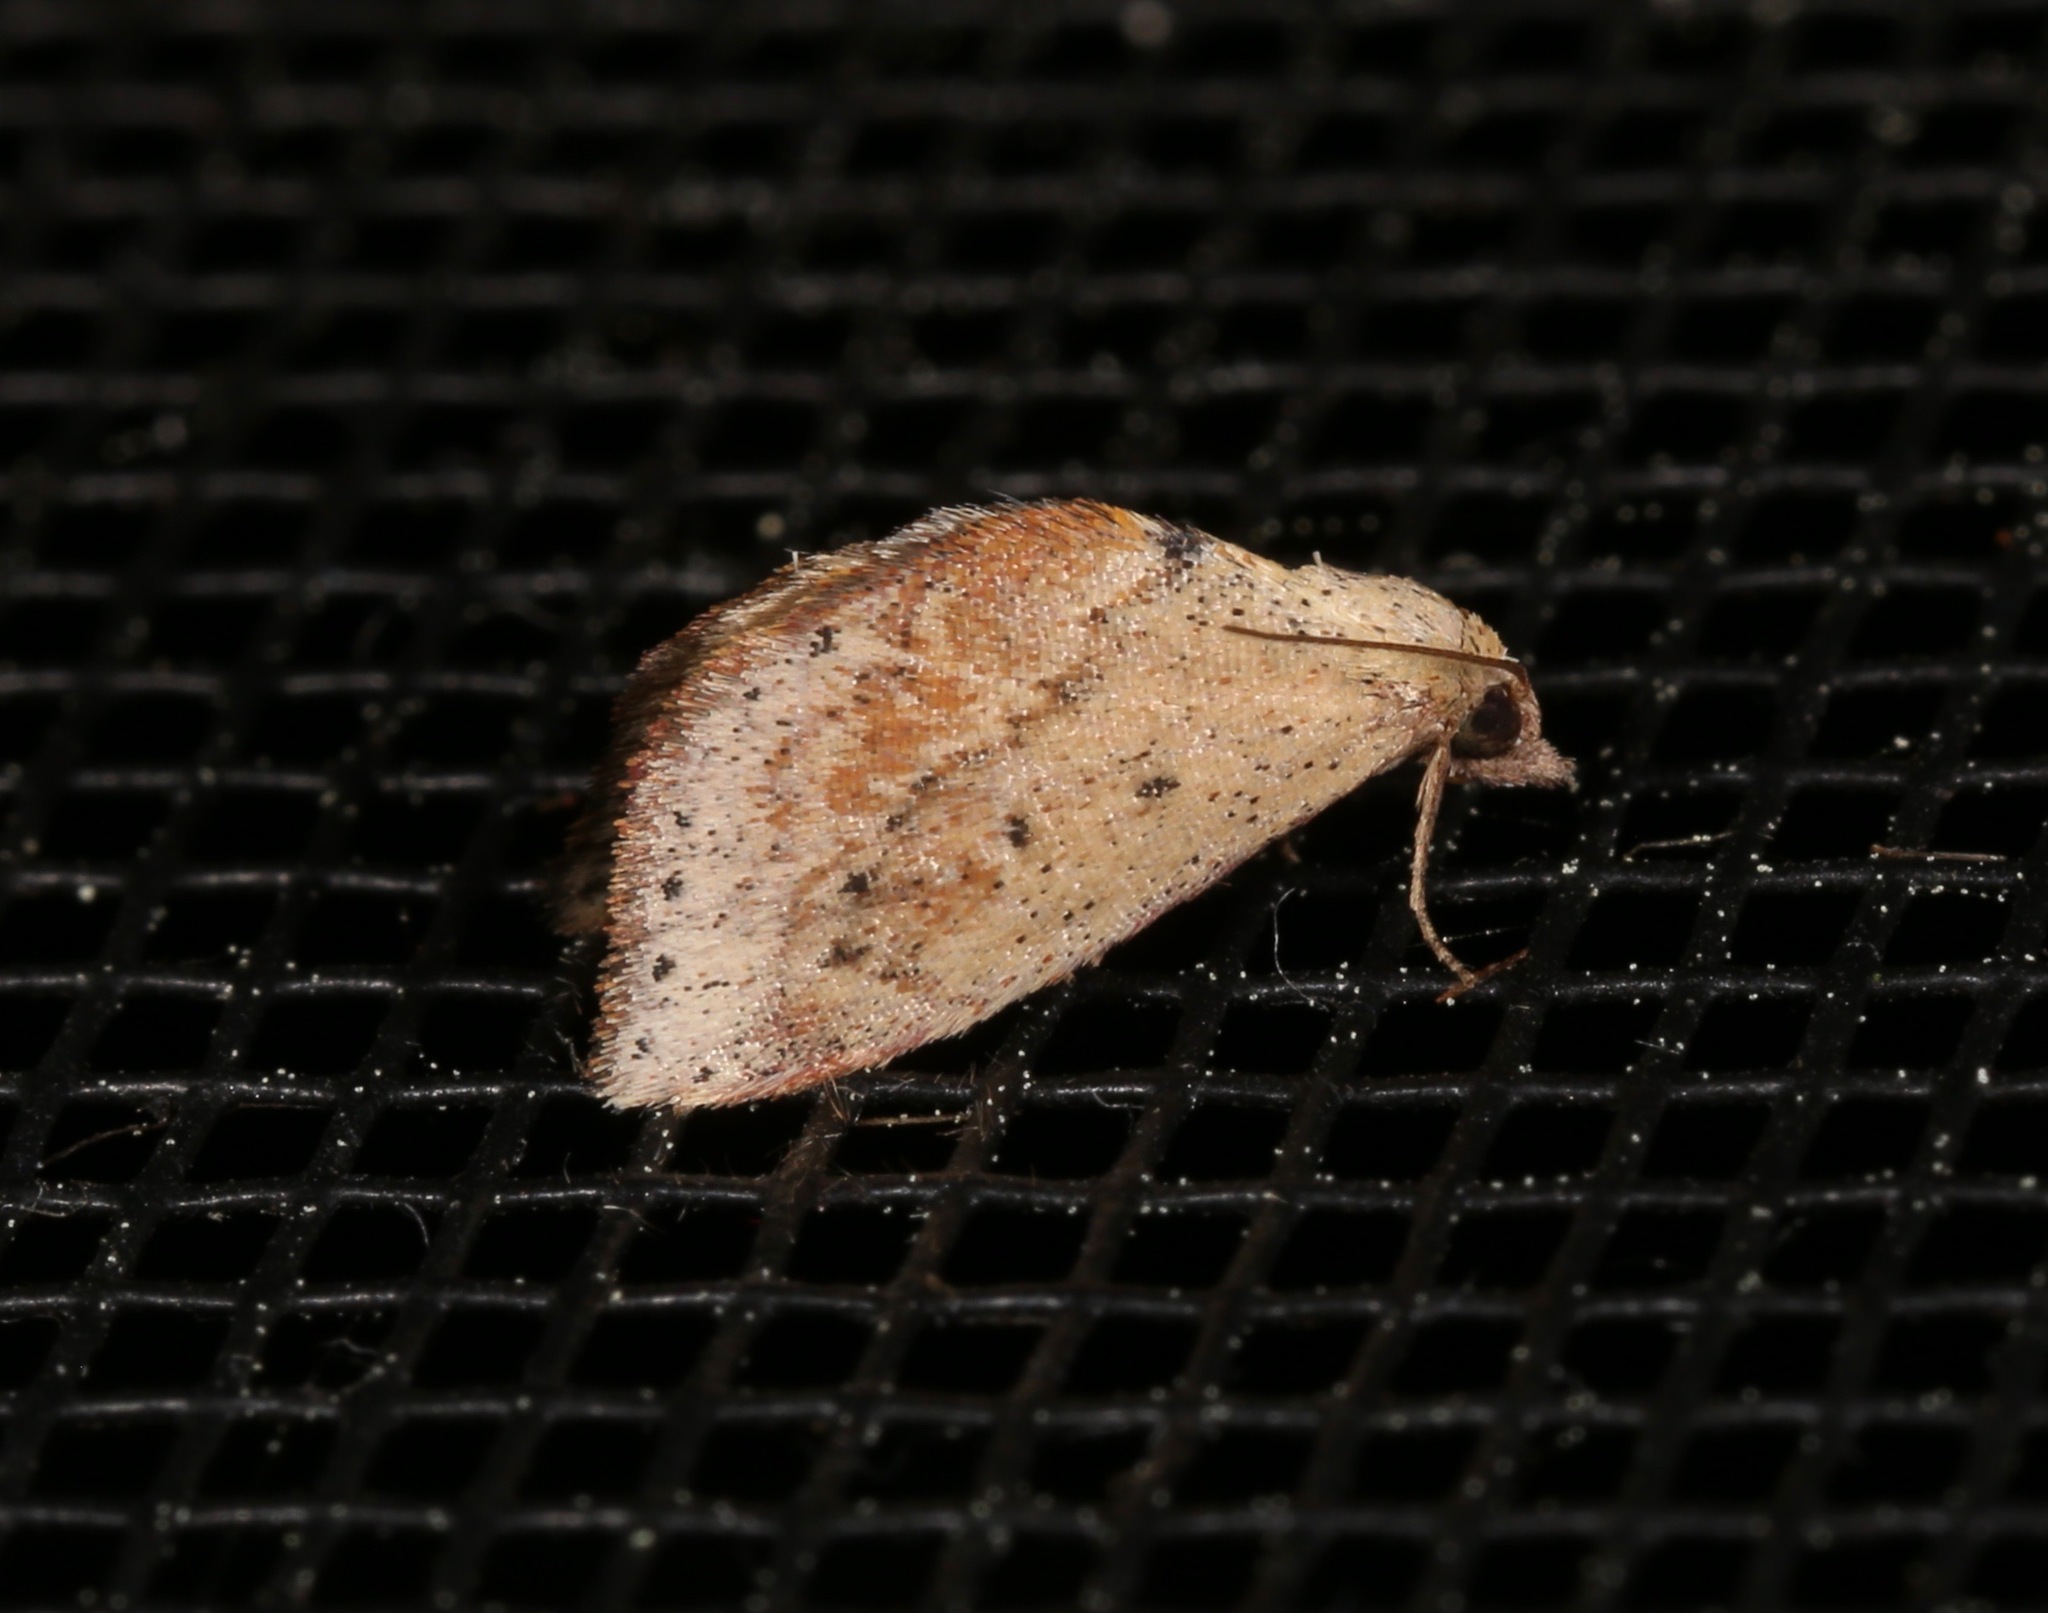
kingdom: Animalia
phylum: Arthropoda
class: Insecta
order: Lepidoptera
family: Noctuidae
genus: Proroblemma
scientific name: Proroblemma testa
